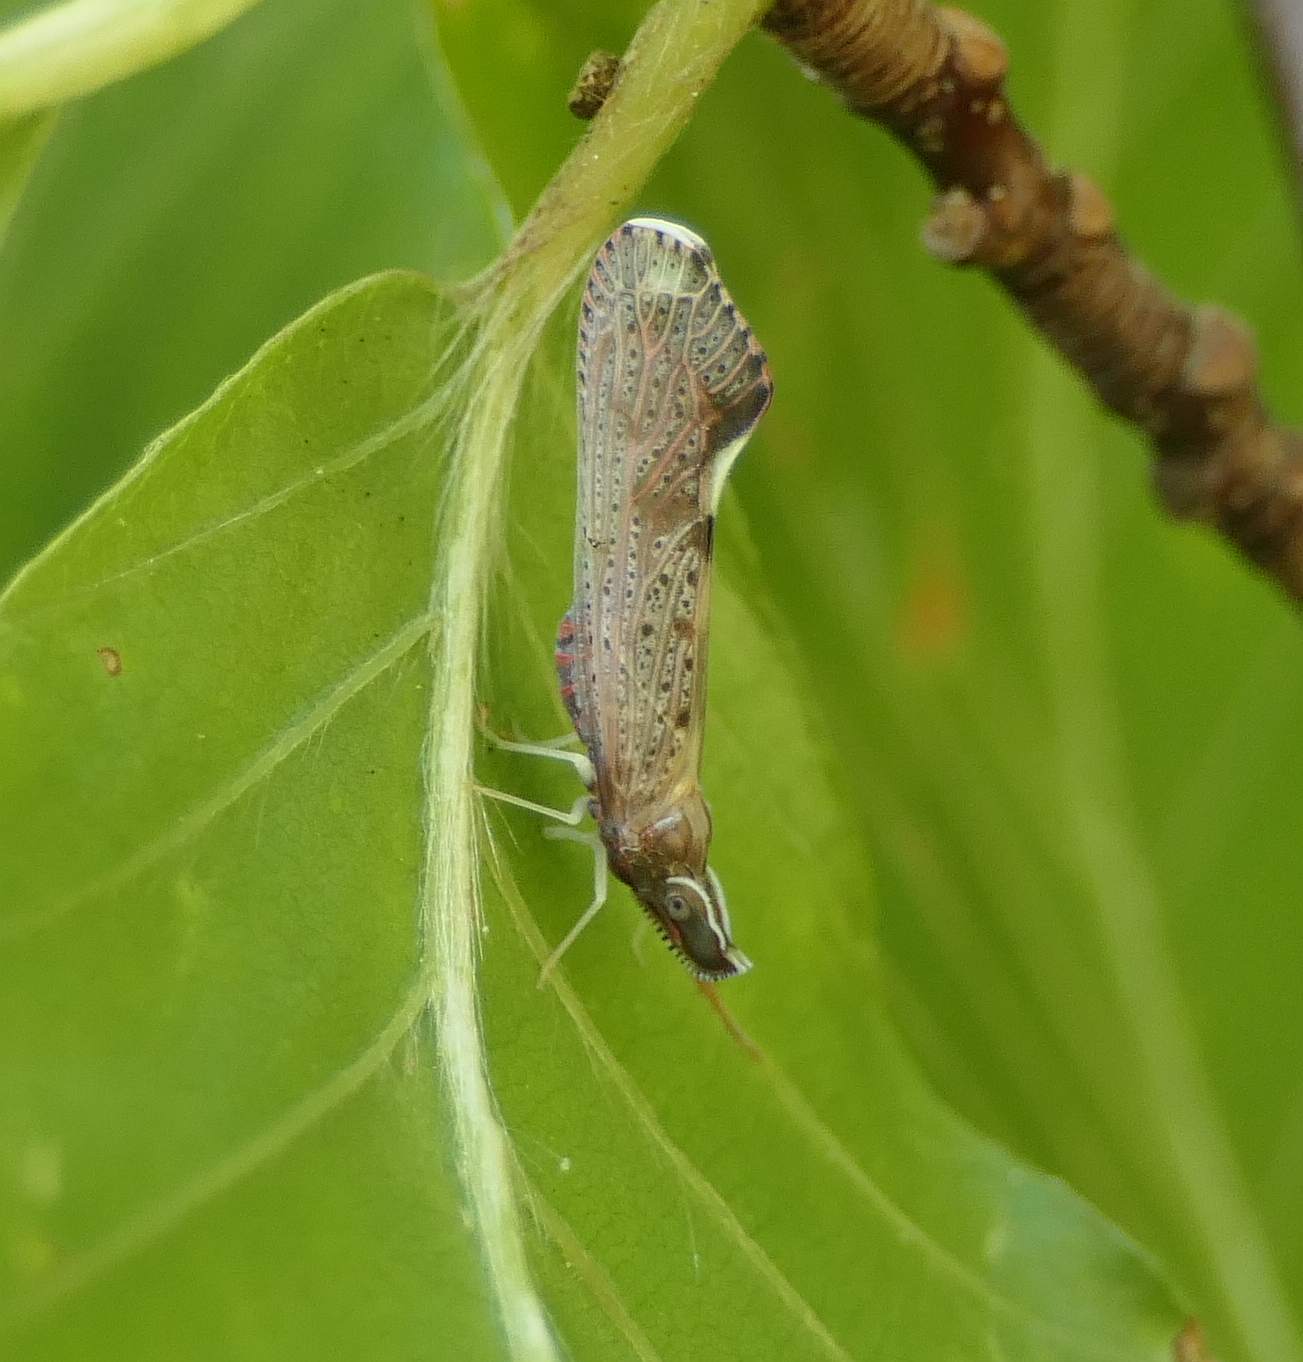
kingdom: Animalia
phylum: Arthropoda
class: Insecta
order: Hemiptera
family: Derbidae
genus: Apache
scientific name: Apache degeeri
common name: Red-fanned planthopper
